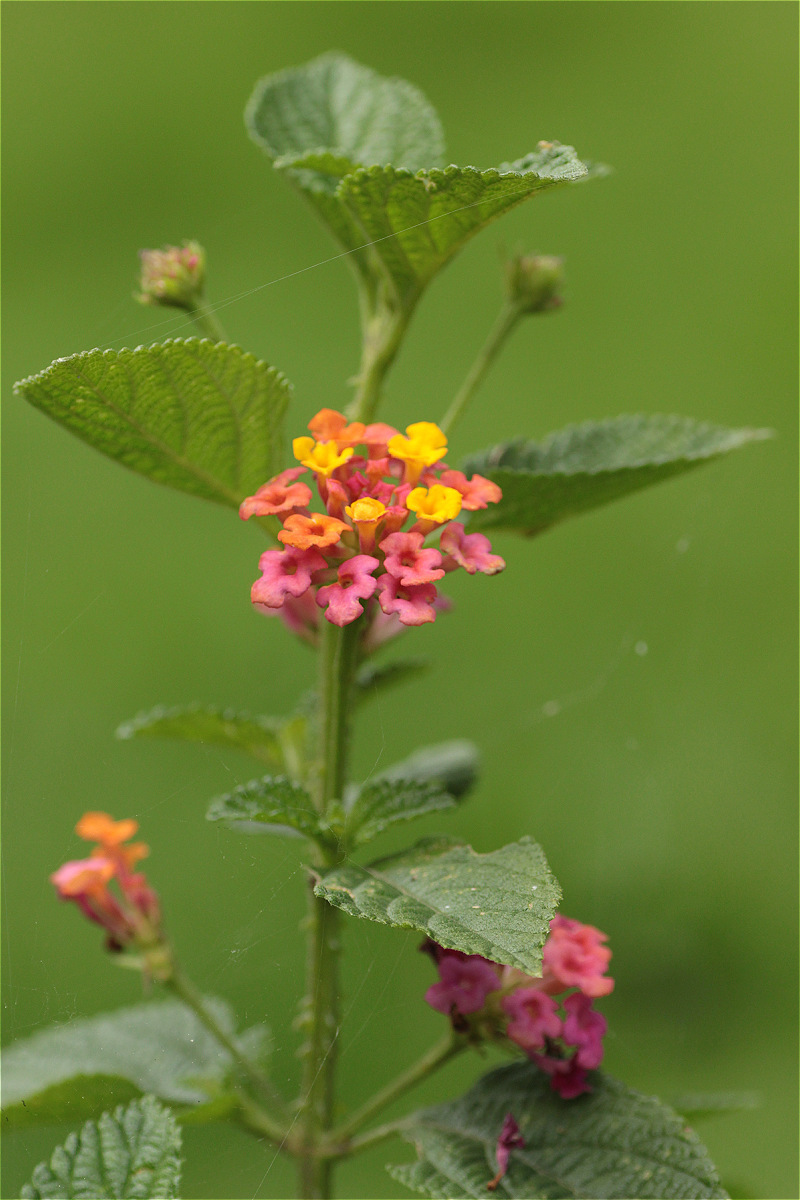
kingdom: Plantae
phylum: Tracheophyta
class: Magnoliopsida
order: Lamiales
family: Verbenaceae
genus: Lantana
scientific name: Lantana camara
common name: Lantana
